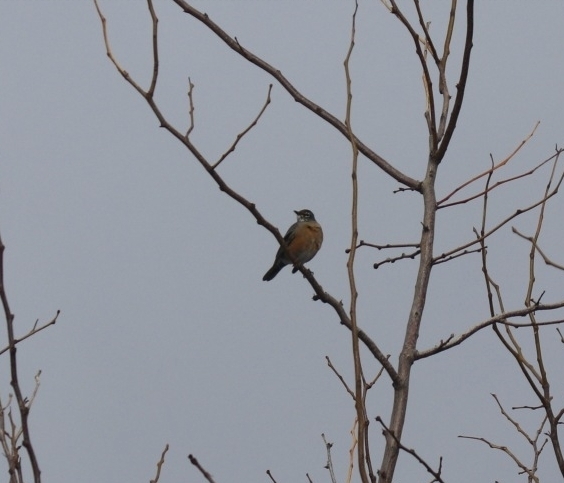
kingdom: Animalia
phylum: Chordata
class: Aves
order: Passeriformes
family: Turdidae
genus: Turdus
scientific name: Turdus migratorius
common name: American robin
